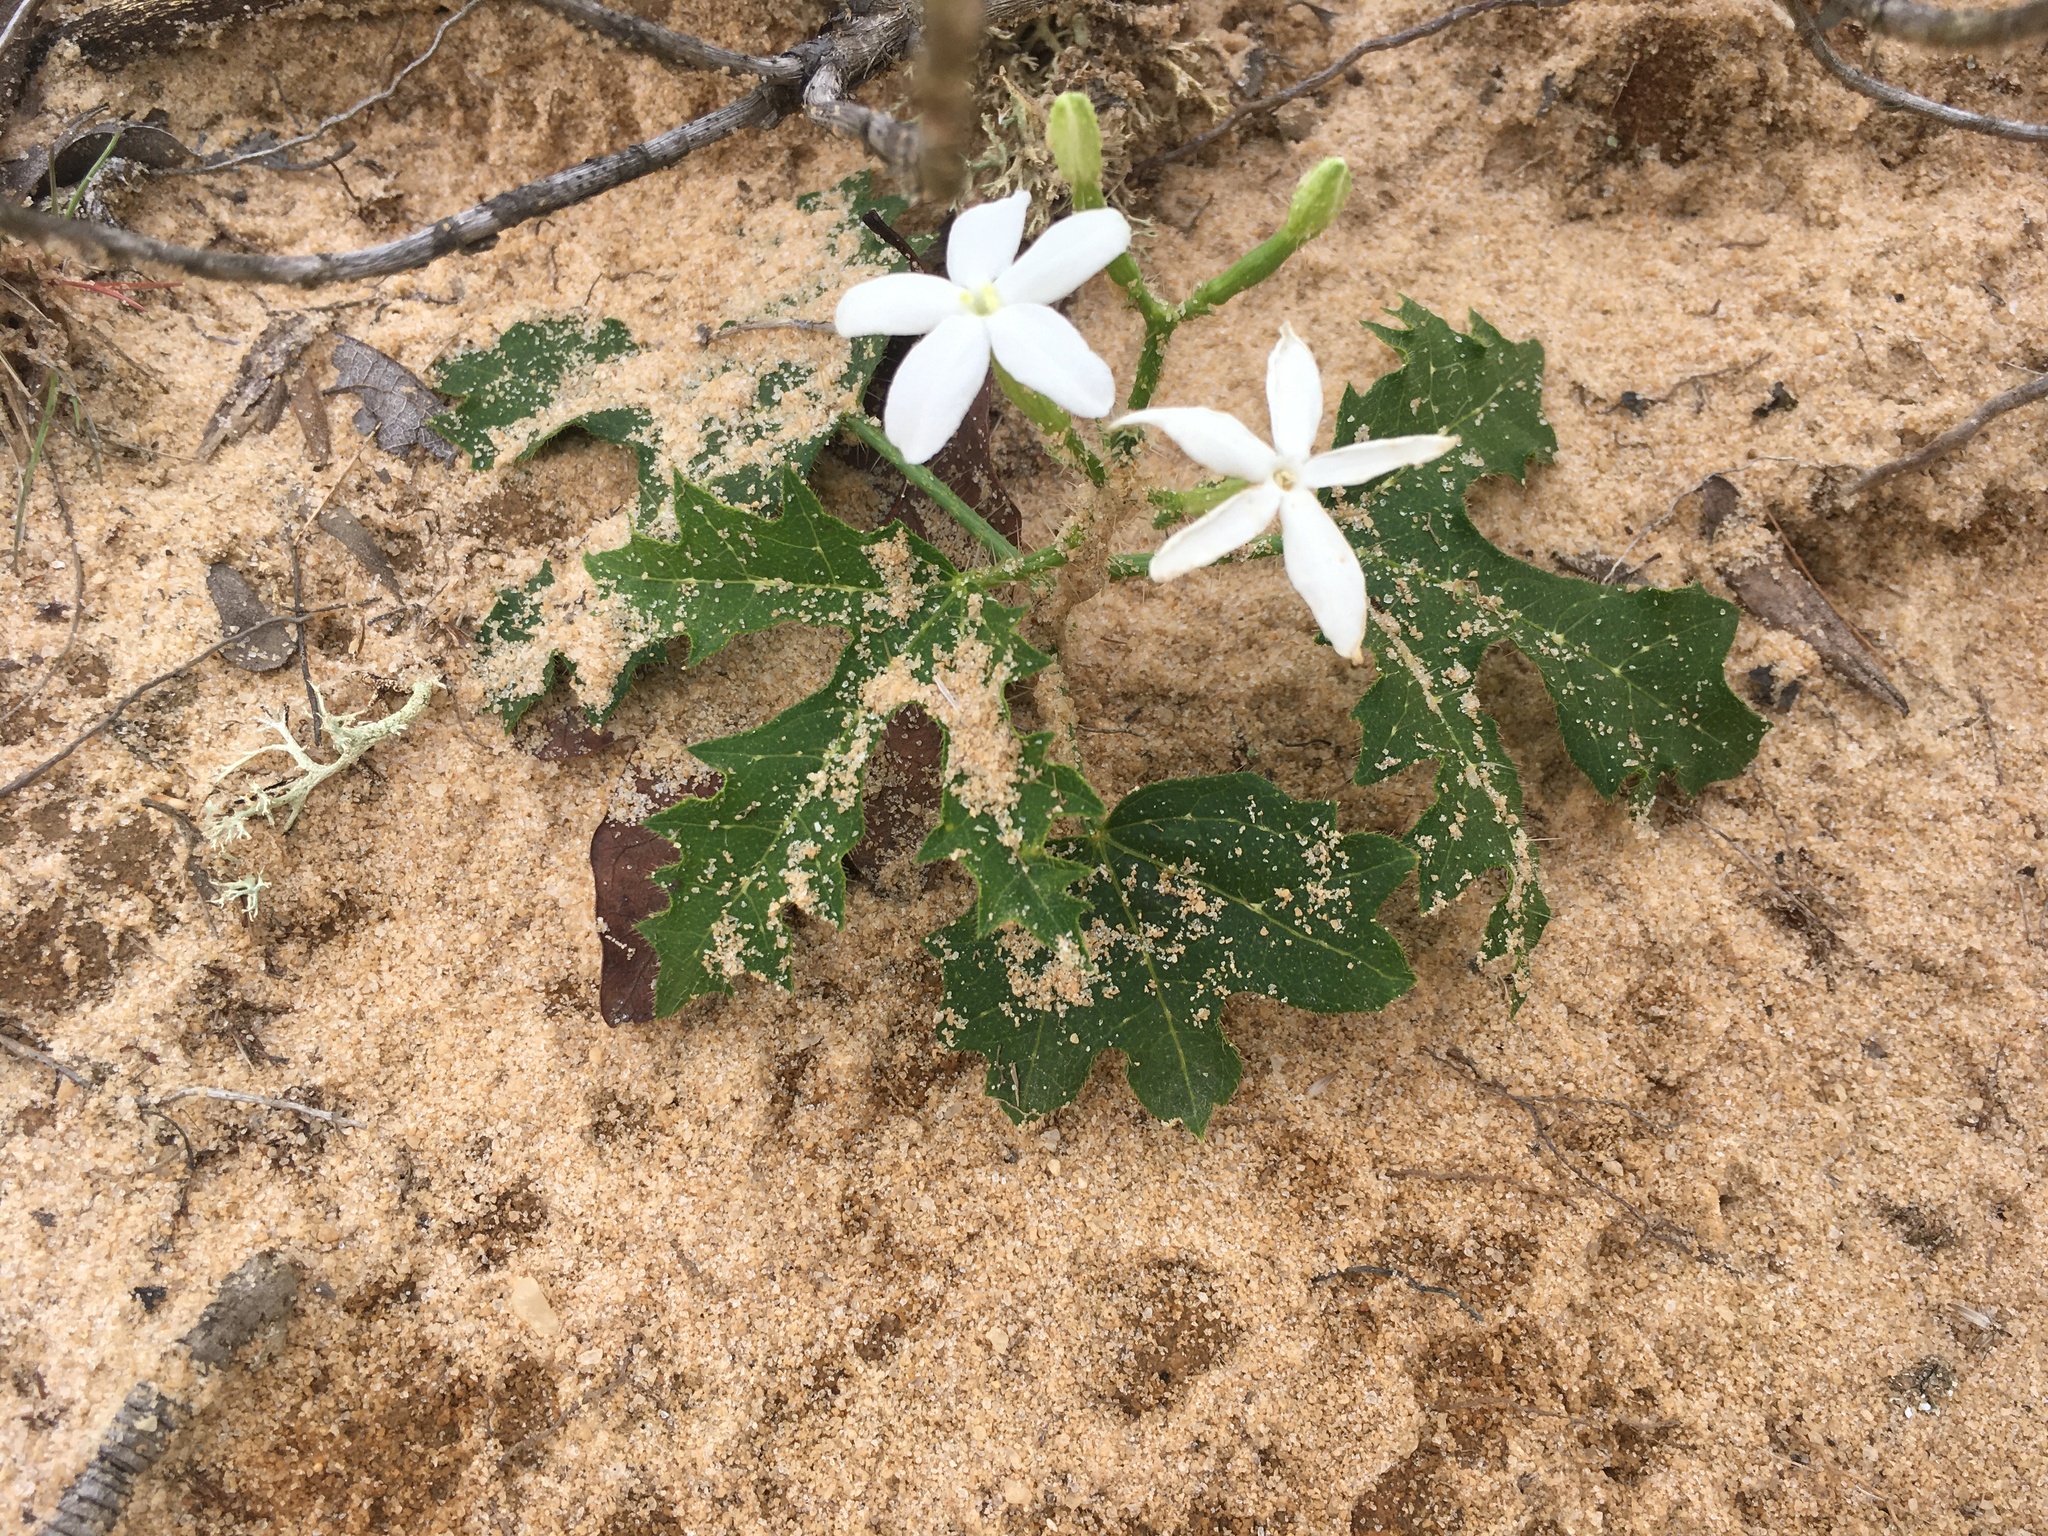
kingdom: Plantae
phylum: Tracheophyta
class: Magnoliopsida
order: Malpighiales
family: Euphorbiaceae
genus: Cnidoscolus
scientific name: Cnidoscolus stimulosus
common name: Bull-nettle
